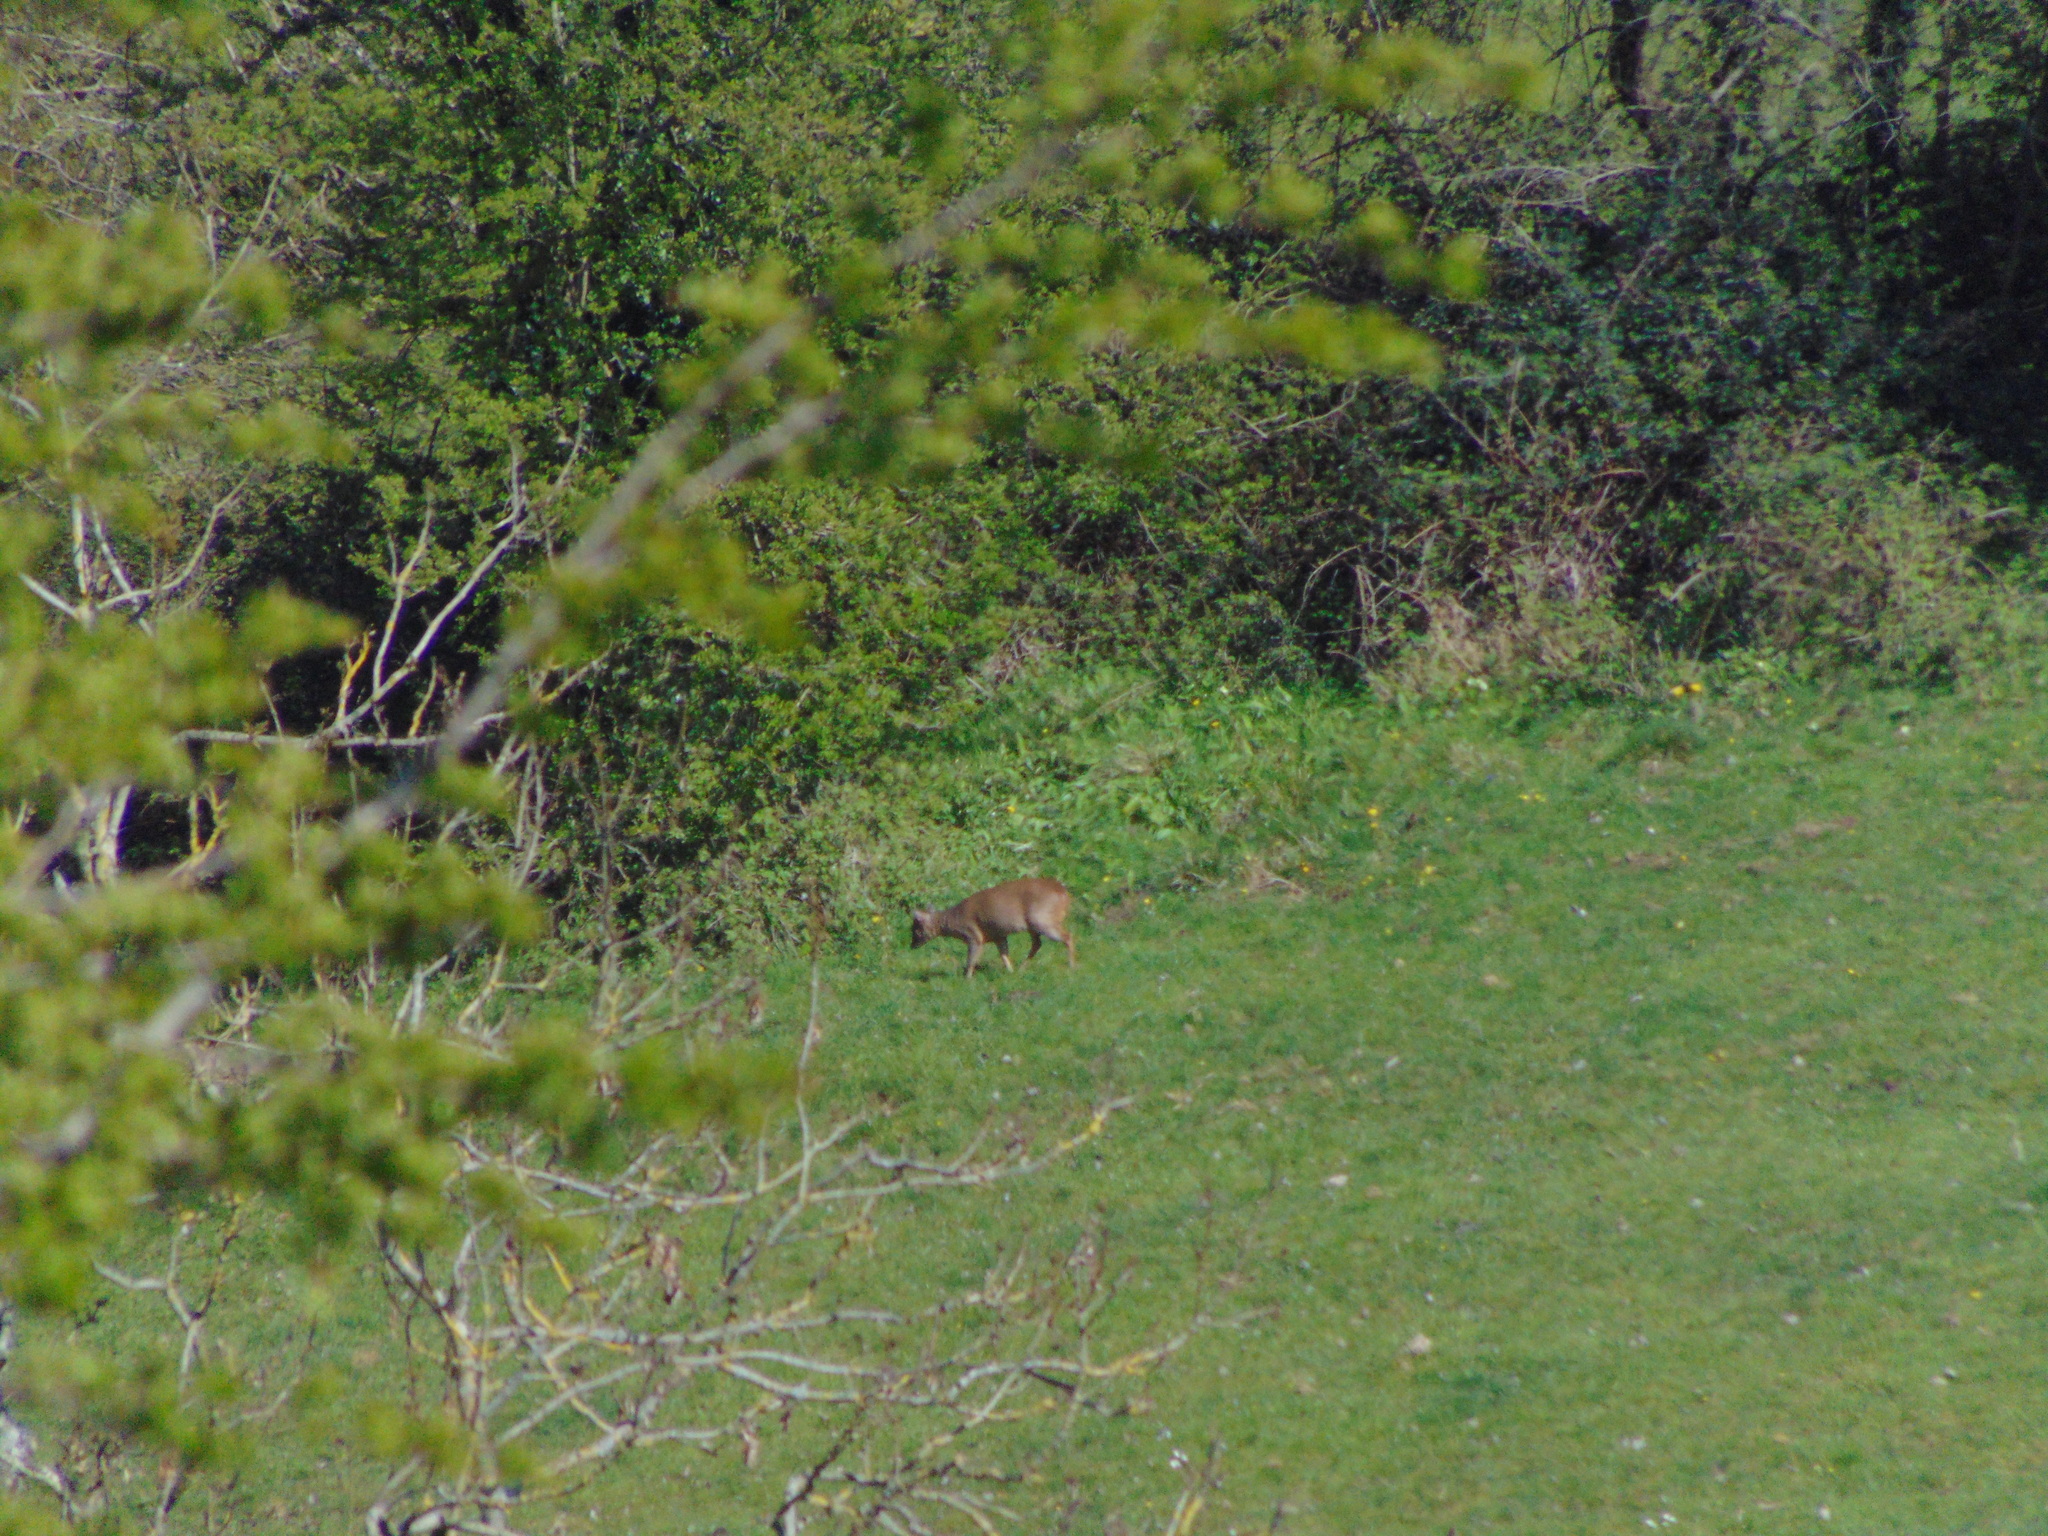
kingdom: Animalia
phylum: Chordata
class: Mammalia
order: Artiodactyla
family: Cervidae
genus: Muntiacus
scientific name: Muntiacus reevesi
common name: Reeves' muntjac
